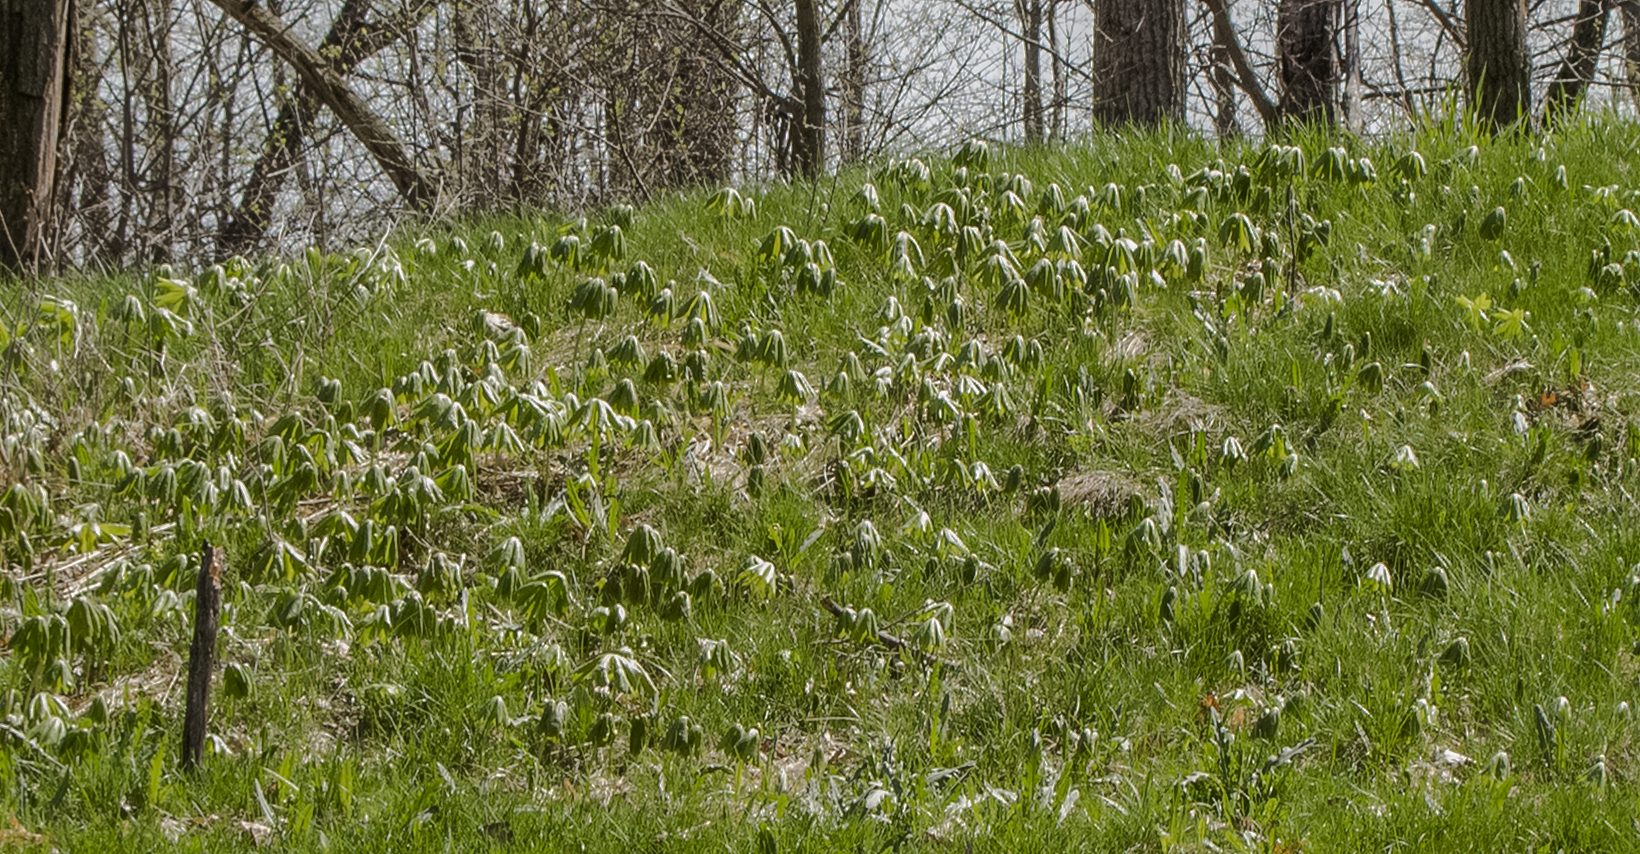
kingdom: Plantae
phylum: Tracheophyta
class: Magnoliopsida
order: Ranunculales
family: Berberidaceae
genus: Podophyllum
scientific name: Podophyllum peltatum
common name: Wild mandrake
